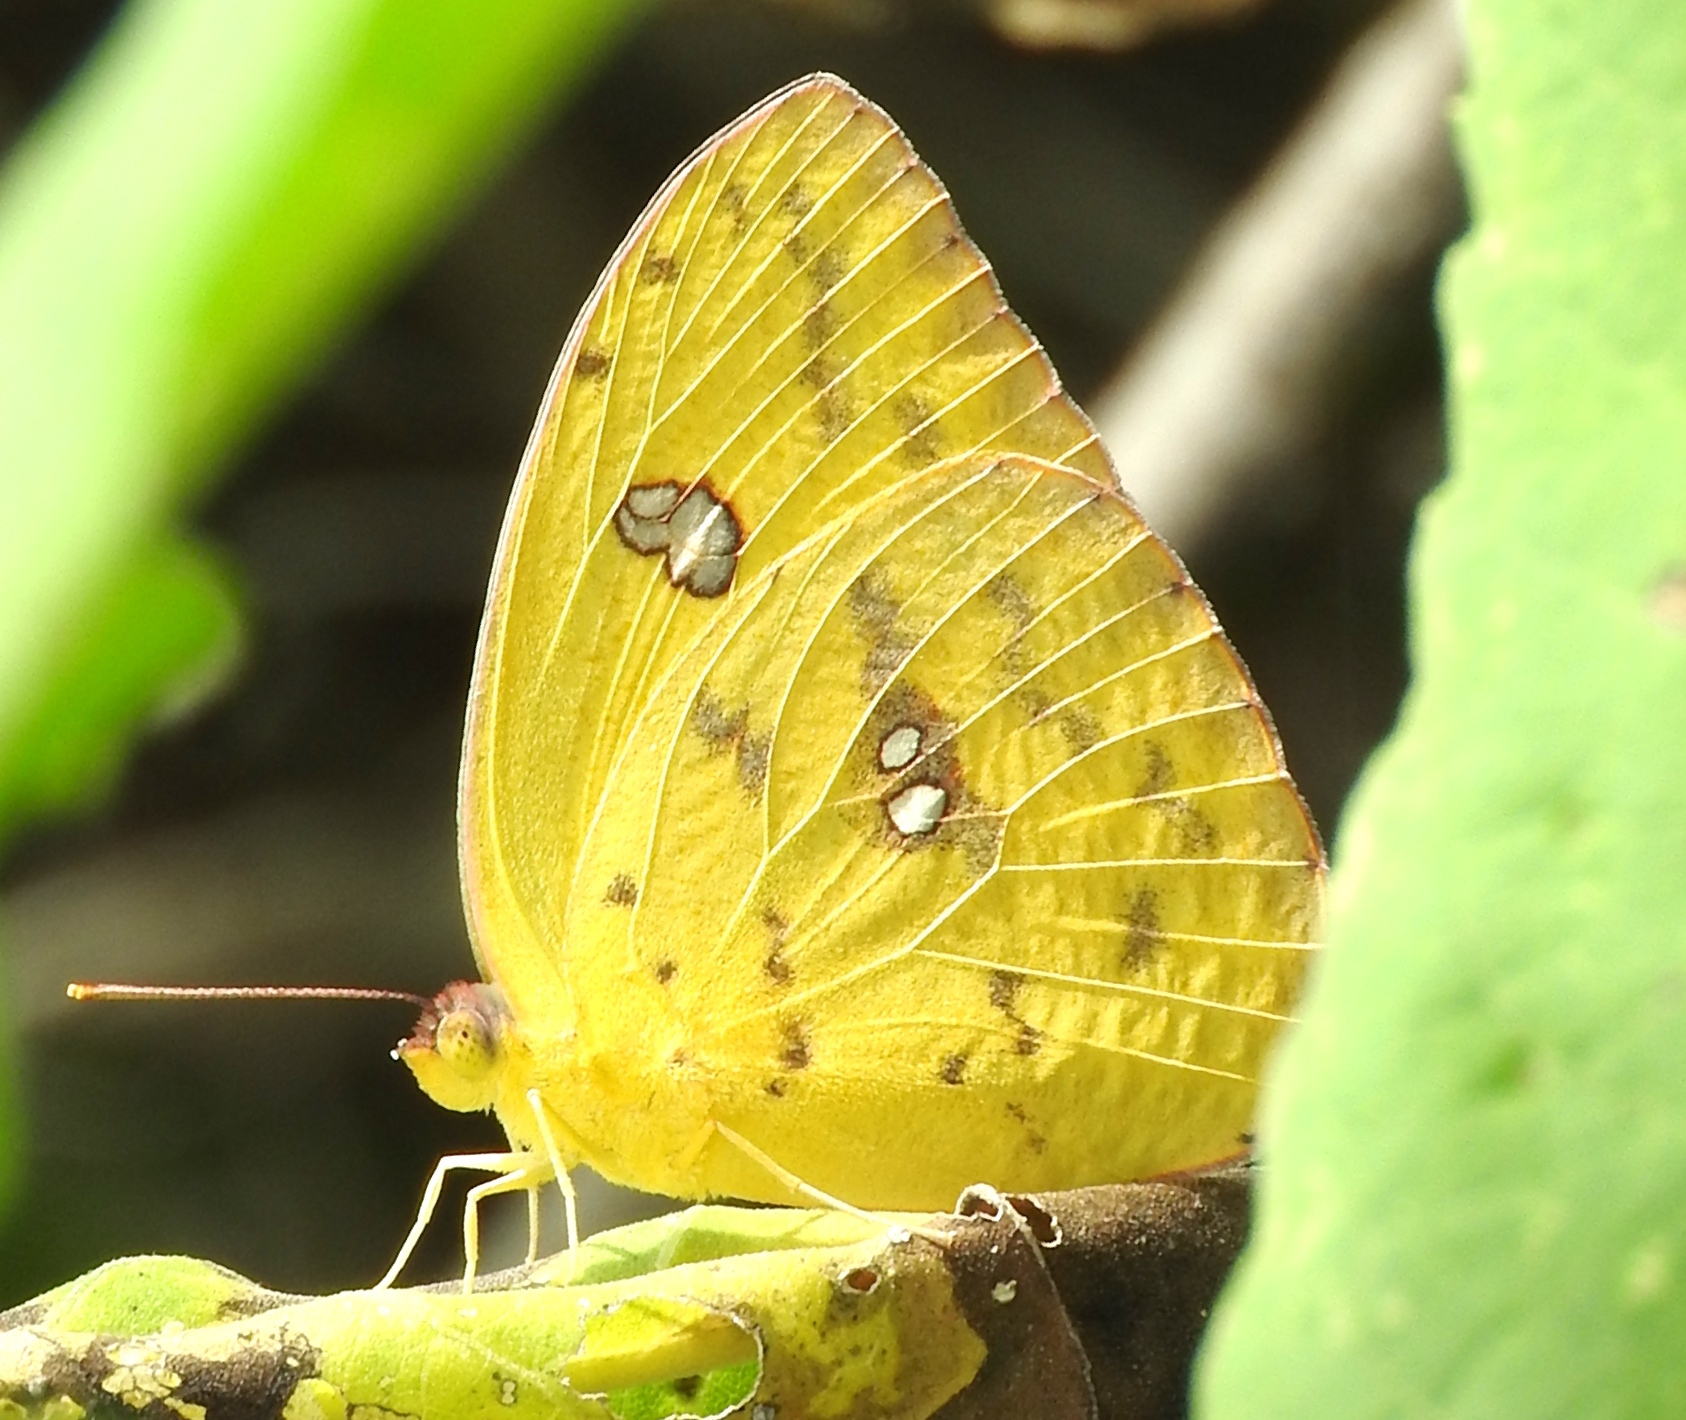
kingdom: Animalia
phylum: Arthropoda
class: Insecta
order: Lepidoptera
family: Pieridae
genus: Phoebis
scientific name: Phoebis sennae
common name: Cloudless sulphur
